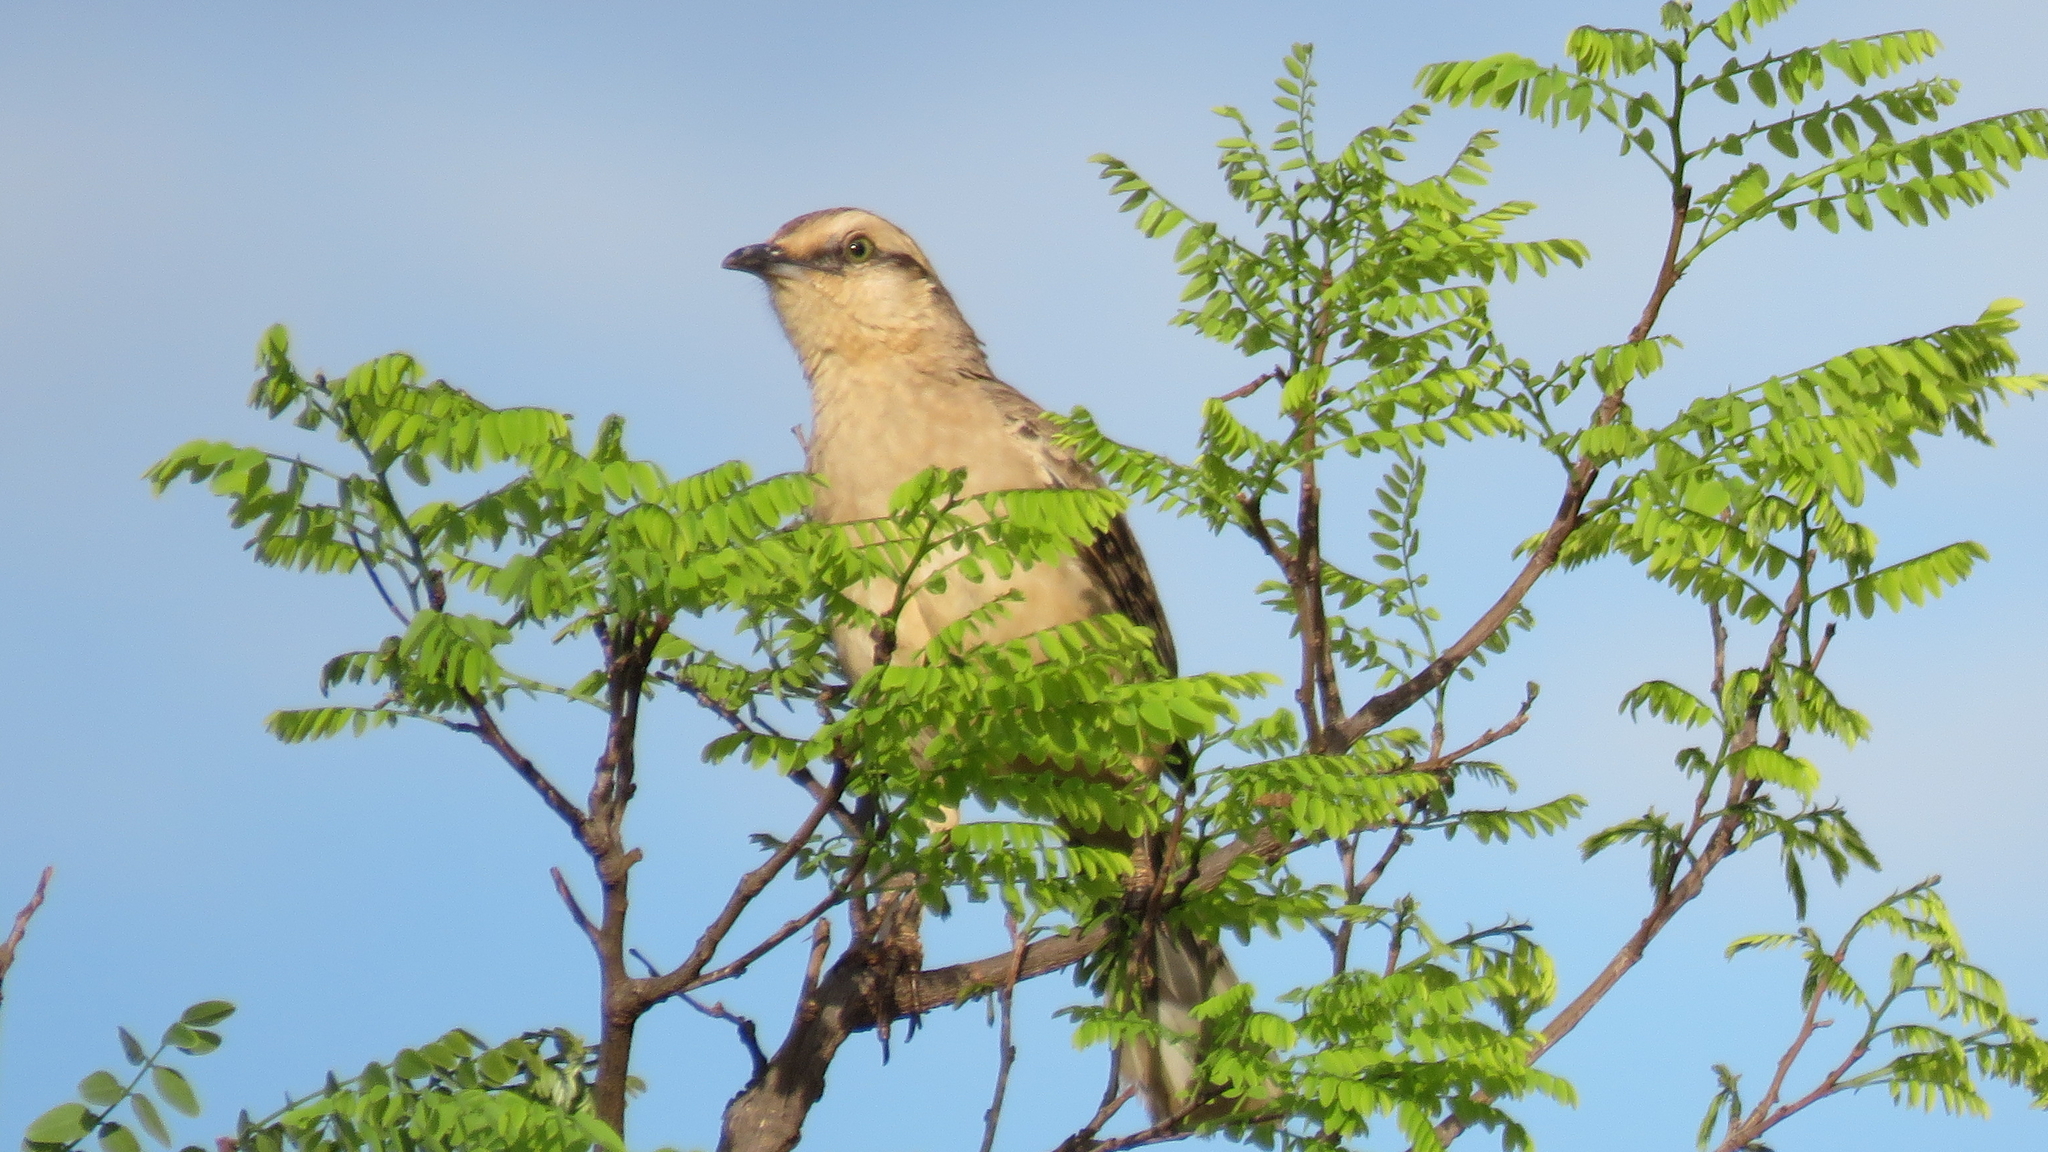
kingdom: Animalia
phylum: Chordata
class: Aves
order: Passeriformes
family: Mimidae
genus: Mimus
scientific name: Mimus saturninus
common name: Chalk-browed mockingbird
